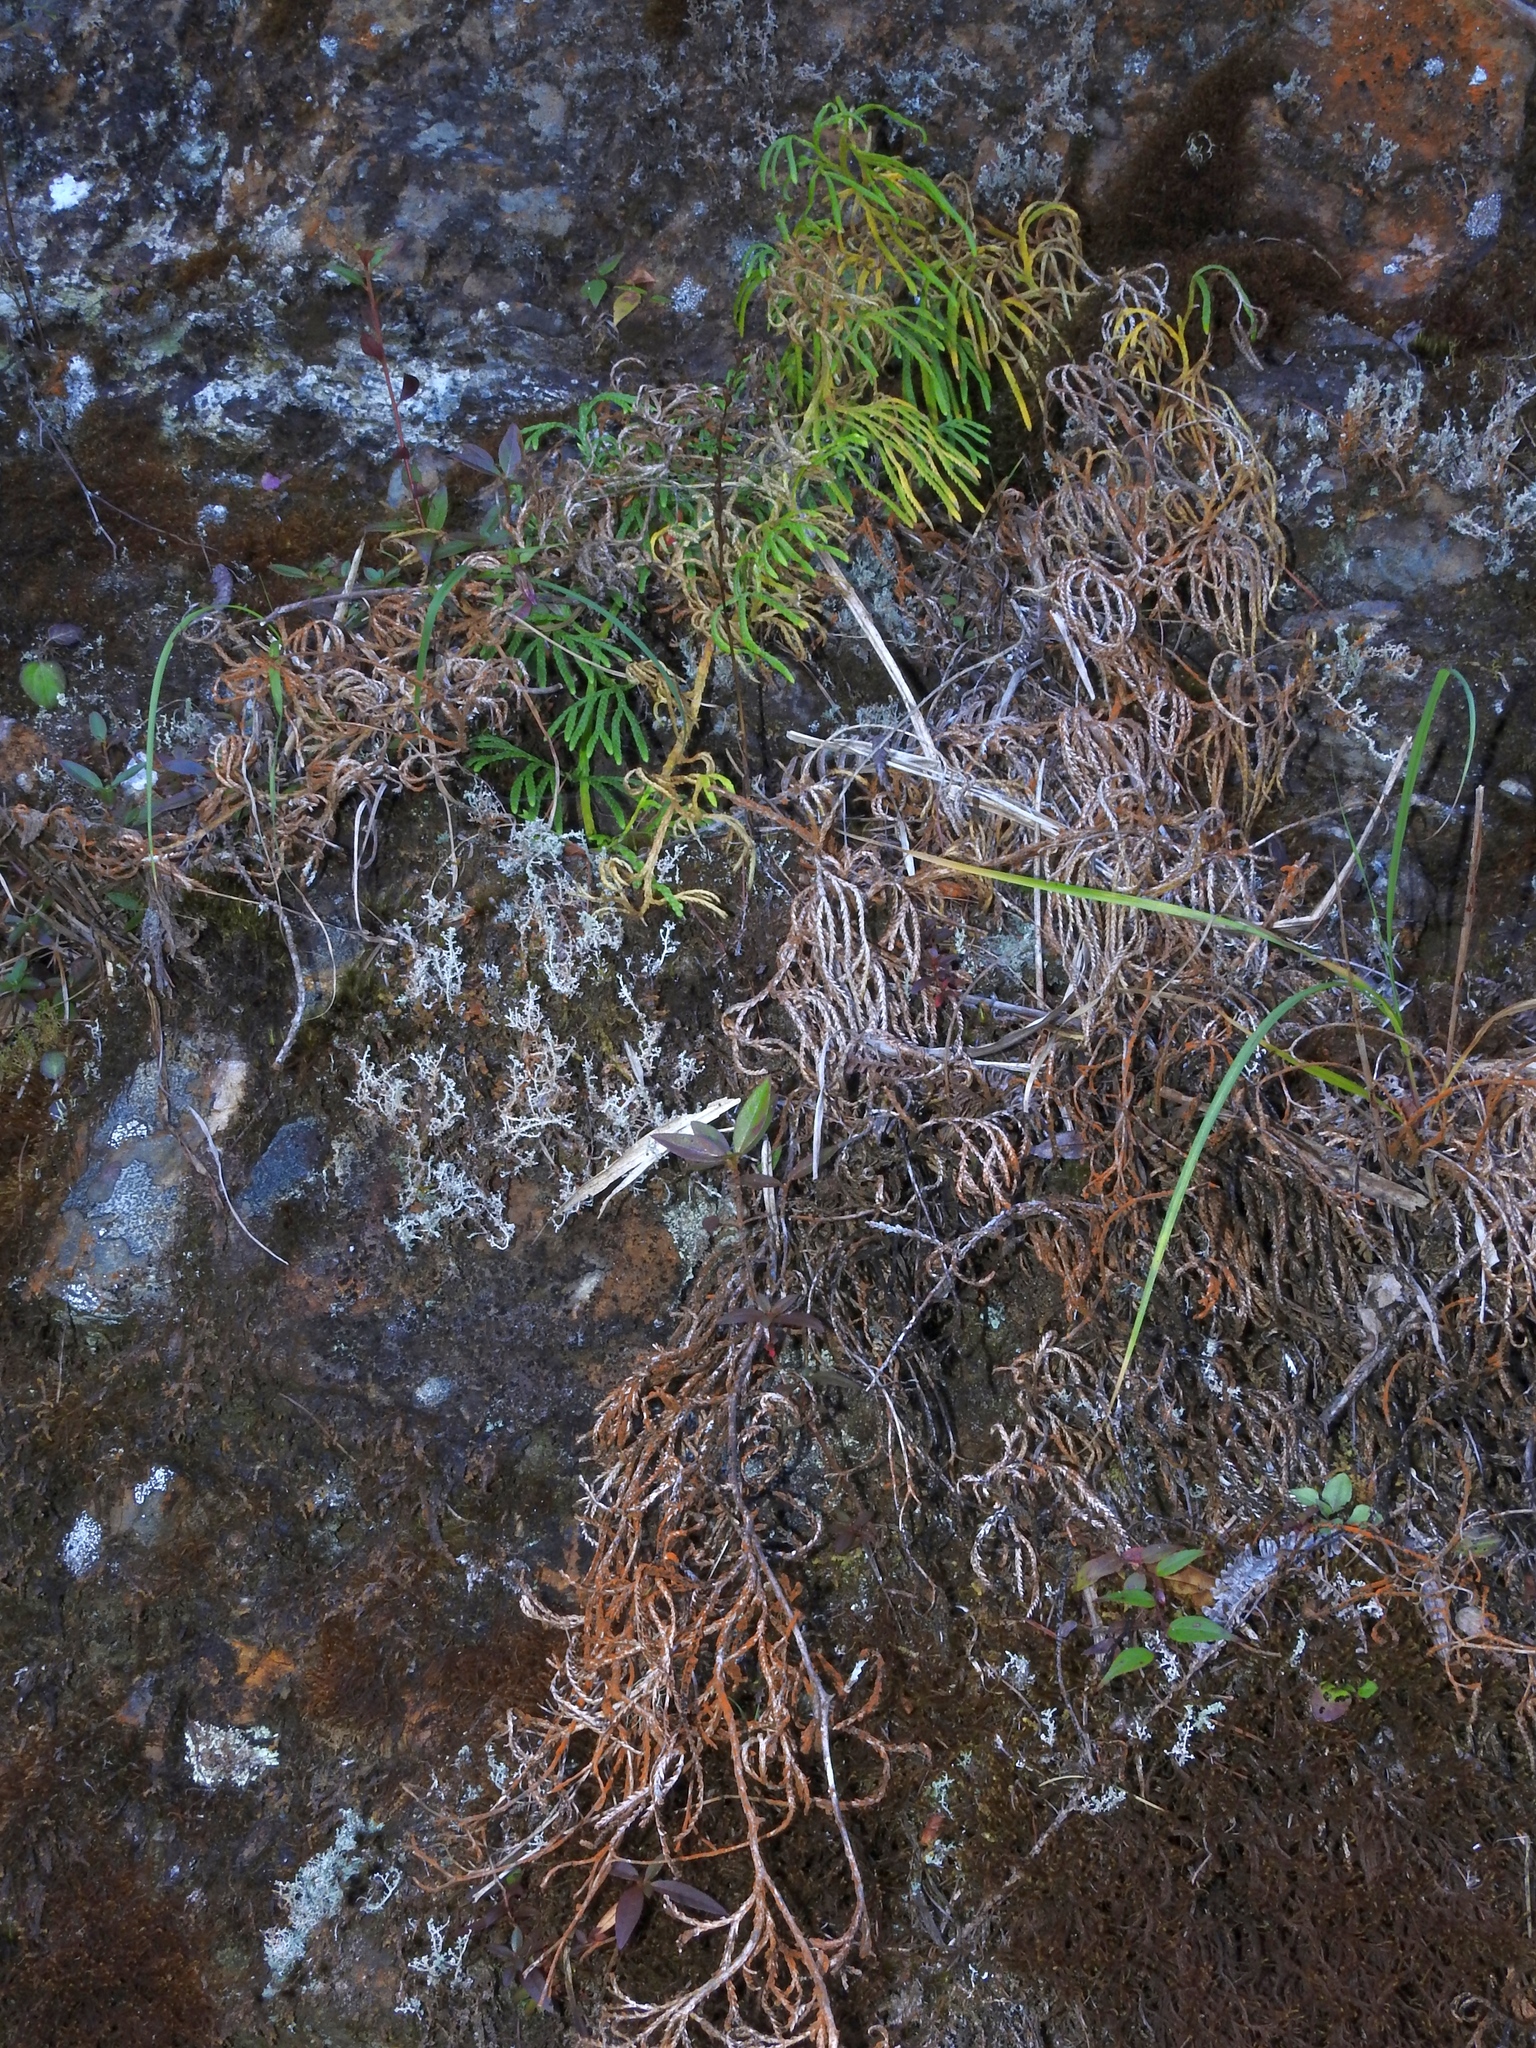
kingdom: Plantae
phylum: Tracheophyta
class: Lycopodiopsida
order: Lycopodiales
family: Lycopodiaceae
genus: Diphasiastrum
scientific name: Diphasiastrum complanatum
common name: Northern running-pine
